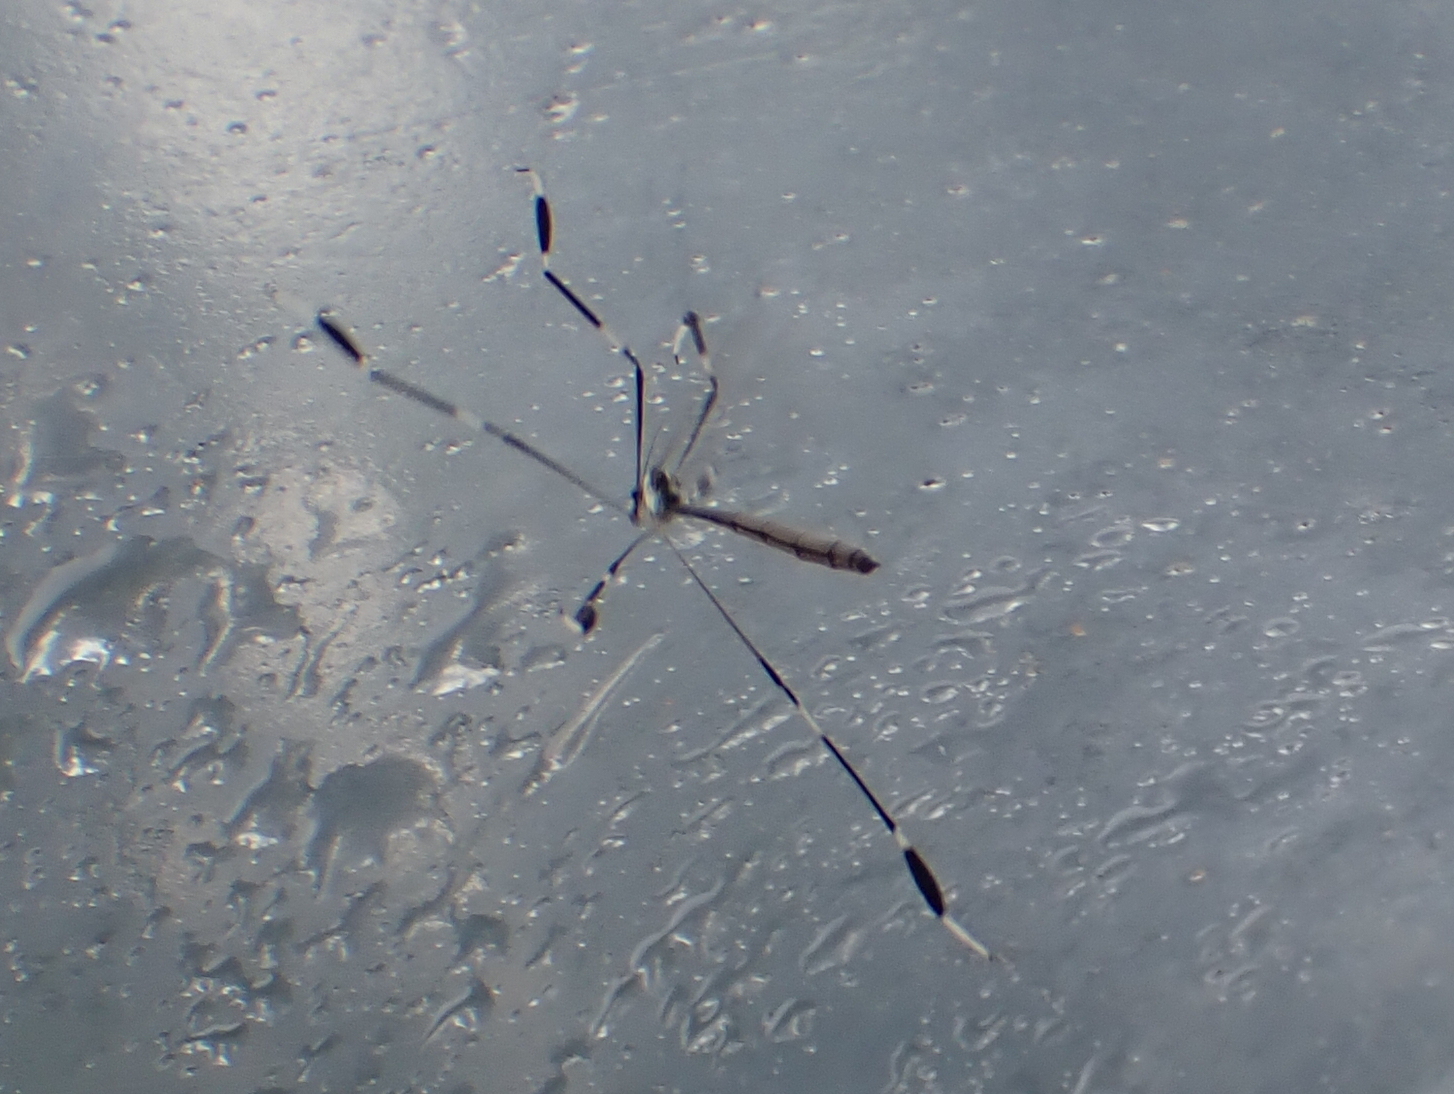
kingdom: Animalia
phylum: Arthropoda
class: Insecta
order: Diptera
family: Ptychopteridae
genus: Bittacomorpha
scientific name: Bittacomorpha clavipes
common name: Eastern phantom crane fly
